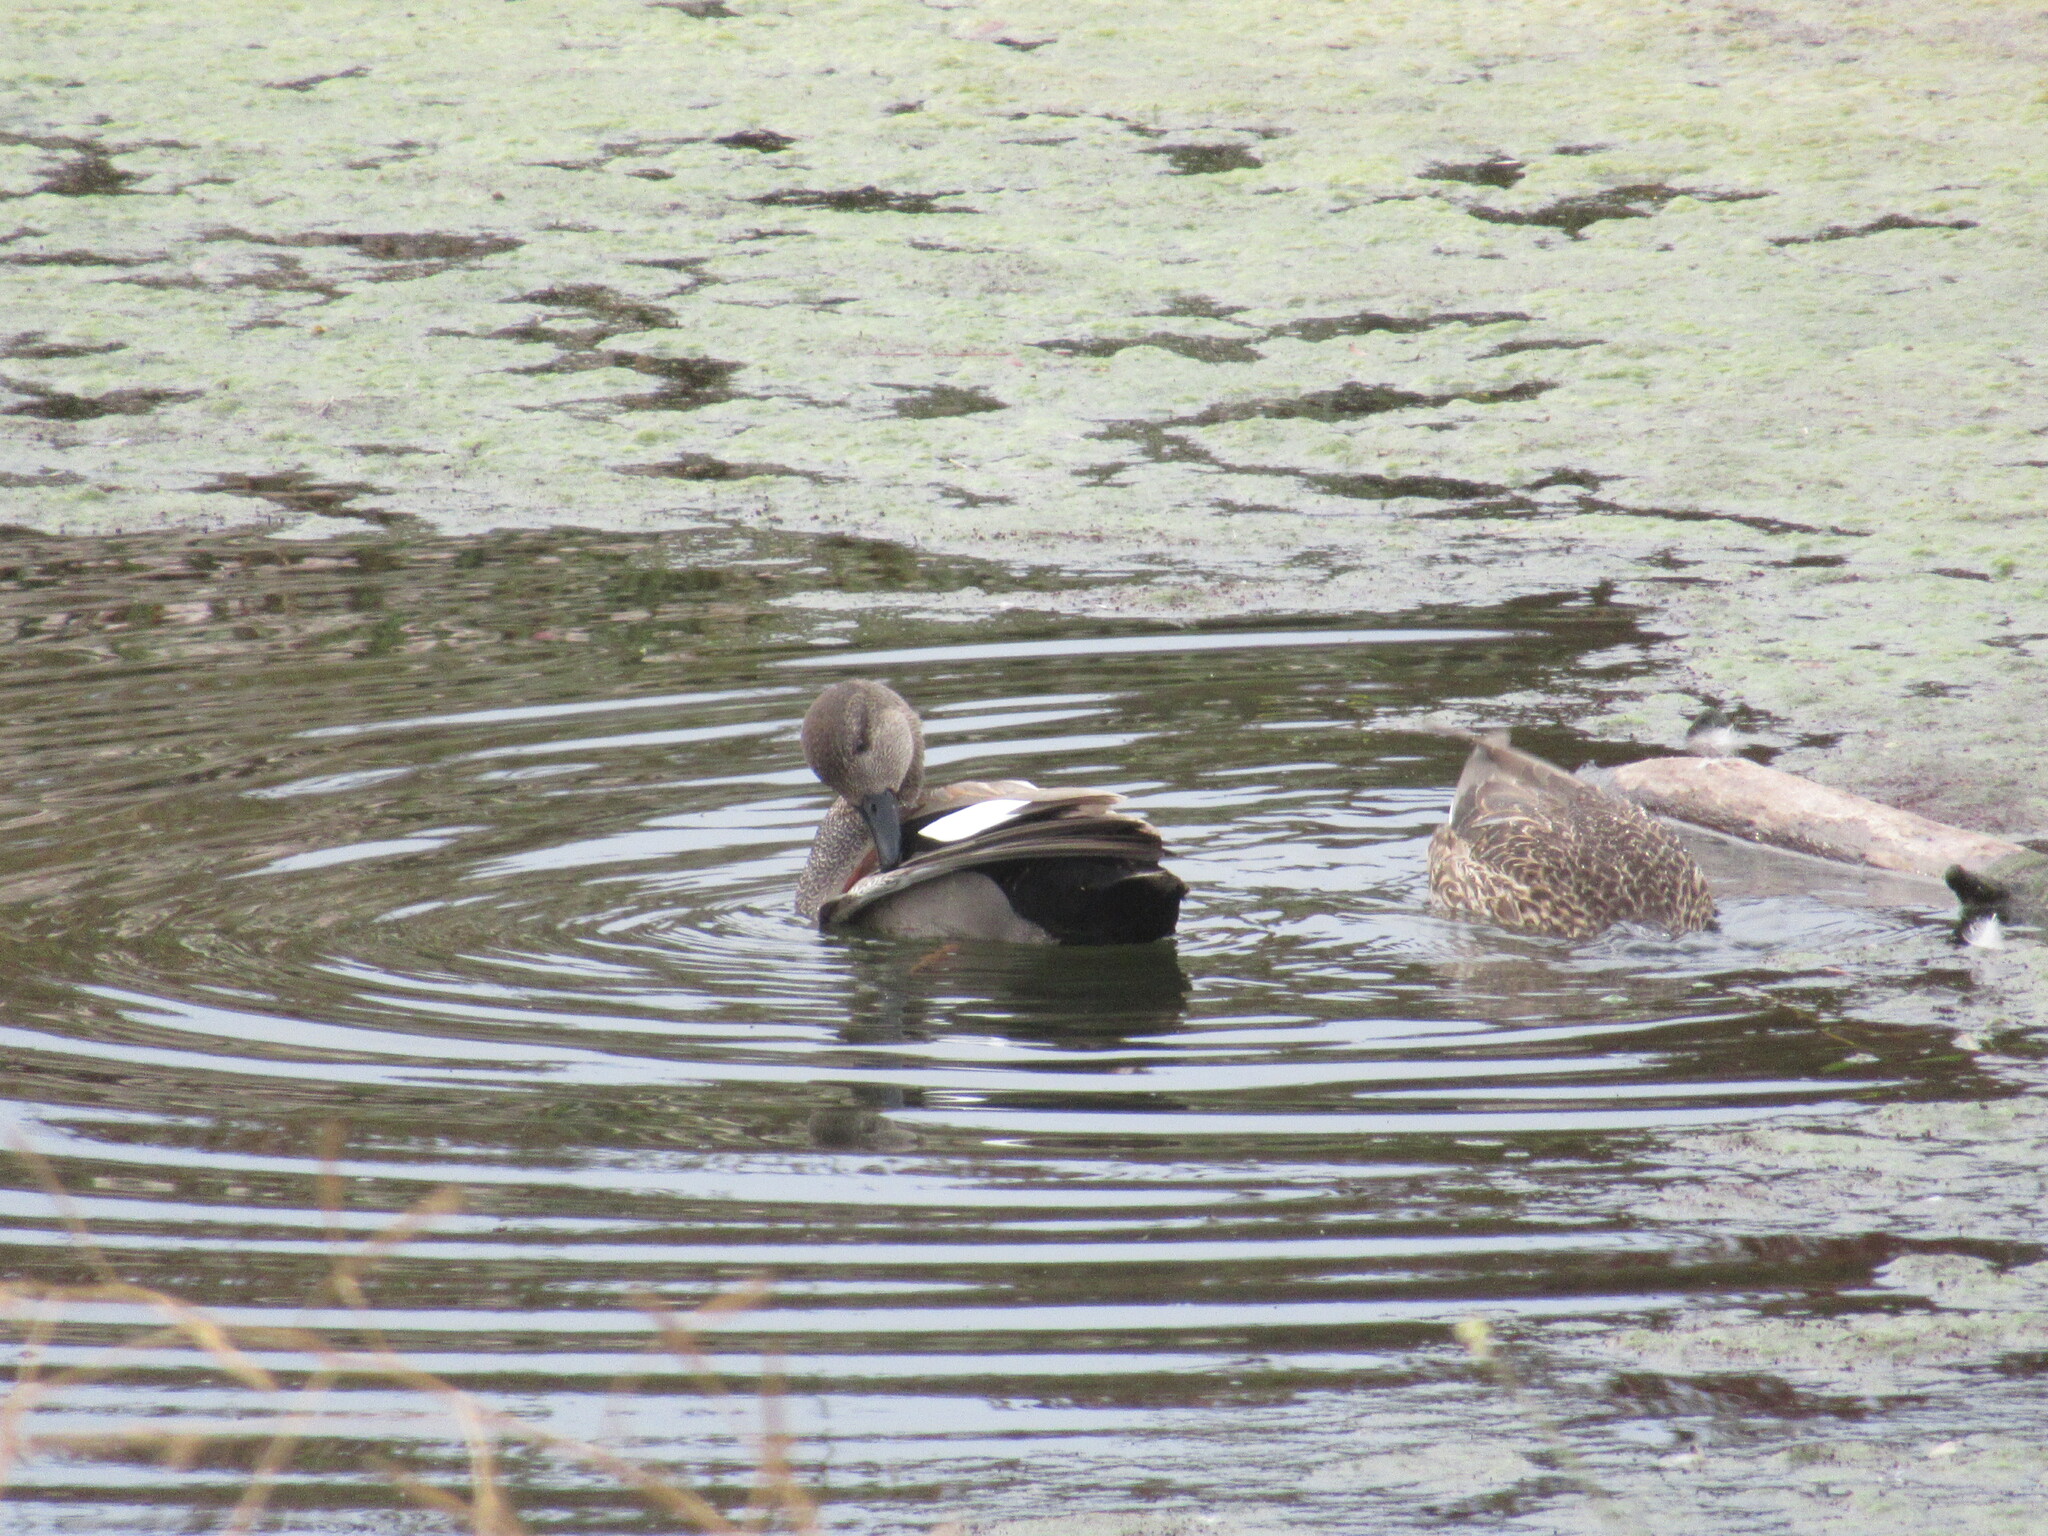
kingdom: Animalia
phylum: Chordata
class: Aves
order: Anseriformes
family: Anatidae
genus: Mareca
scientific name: Mareca strepera
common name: Gadwall
